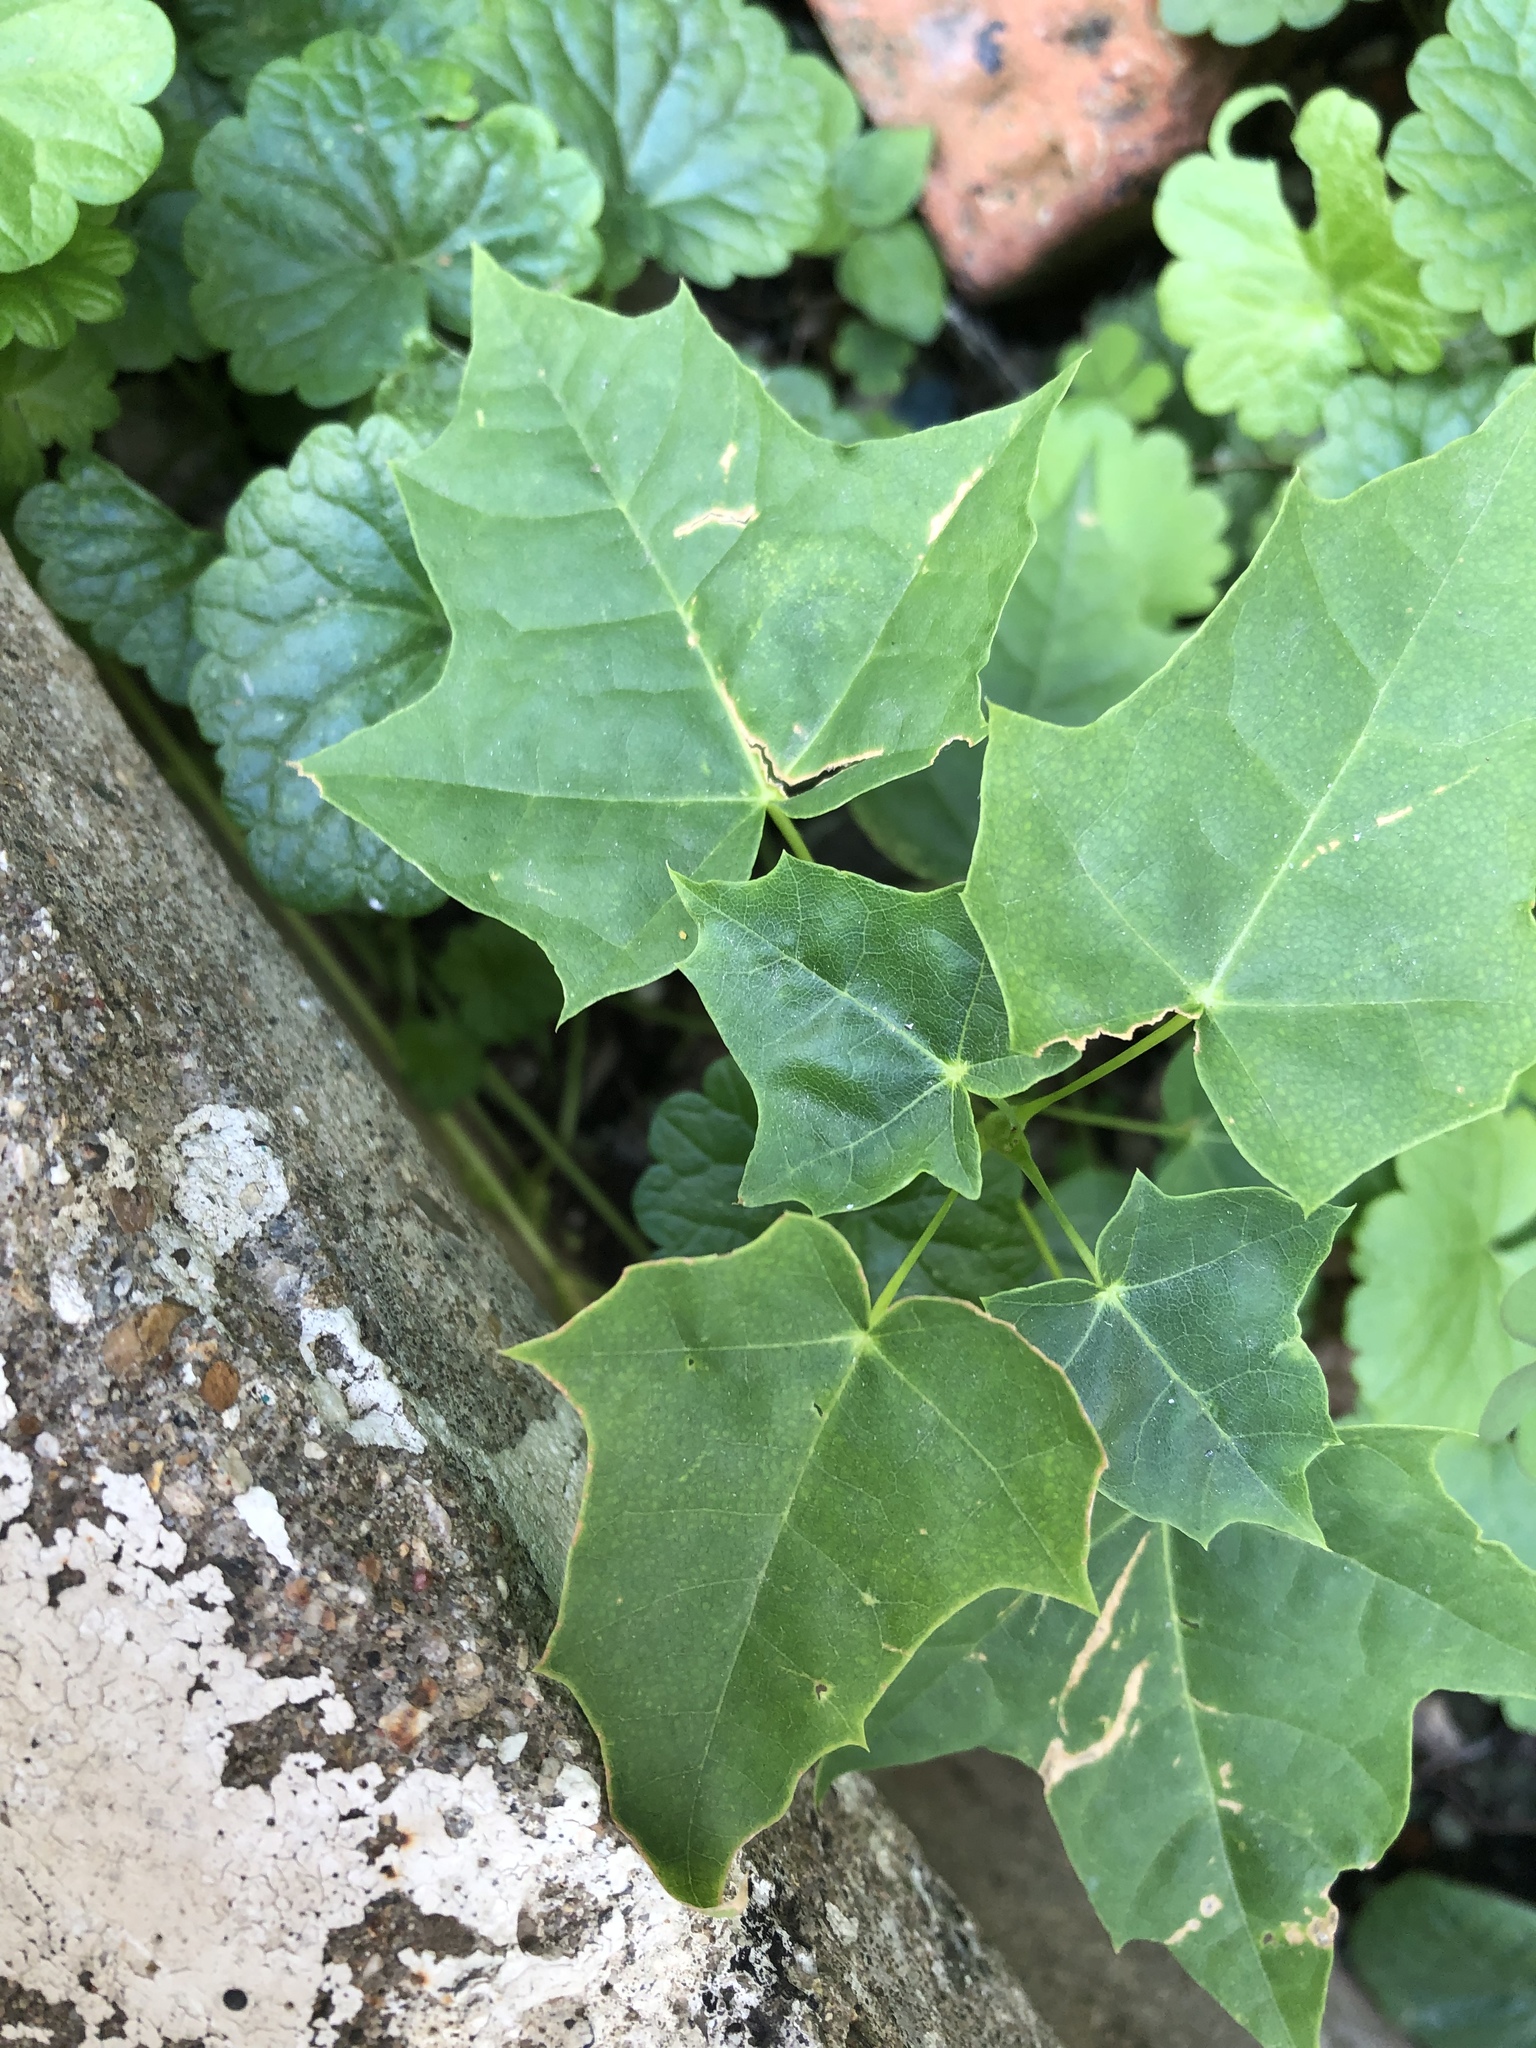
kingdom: Plantae
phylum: Tracheophyta
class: Magnoliopsida
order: Sapindales
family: Sapindaceae
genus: Acer
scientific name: Acer platanoides
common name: Norway maple
